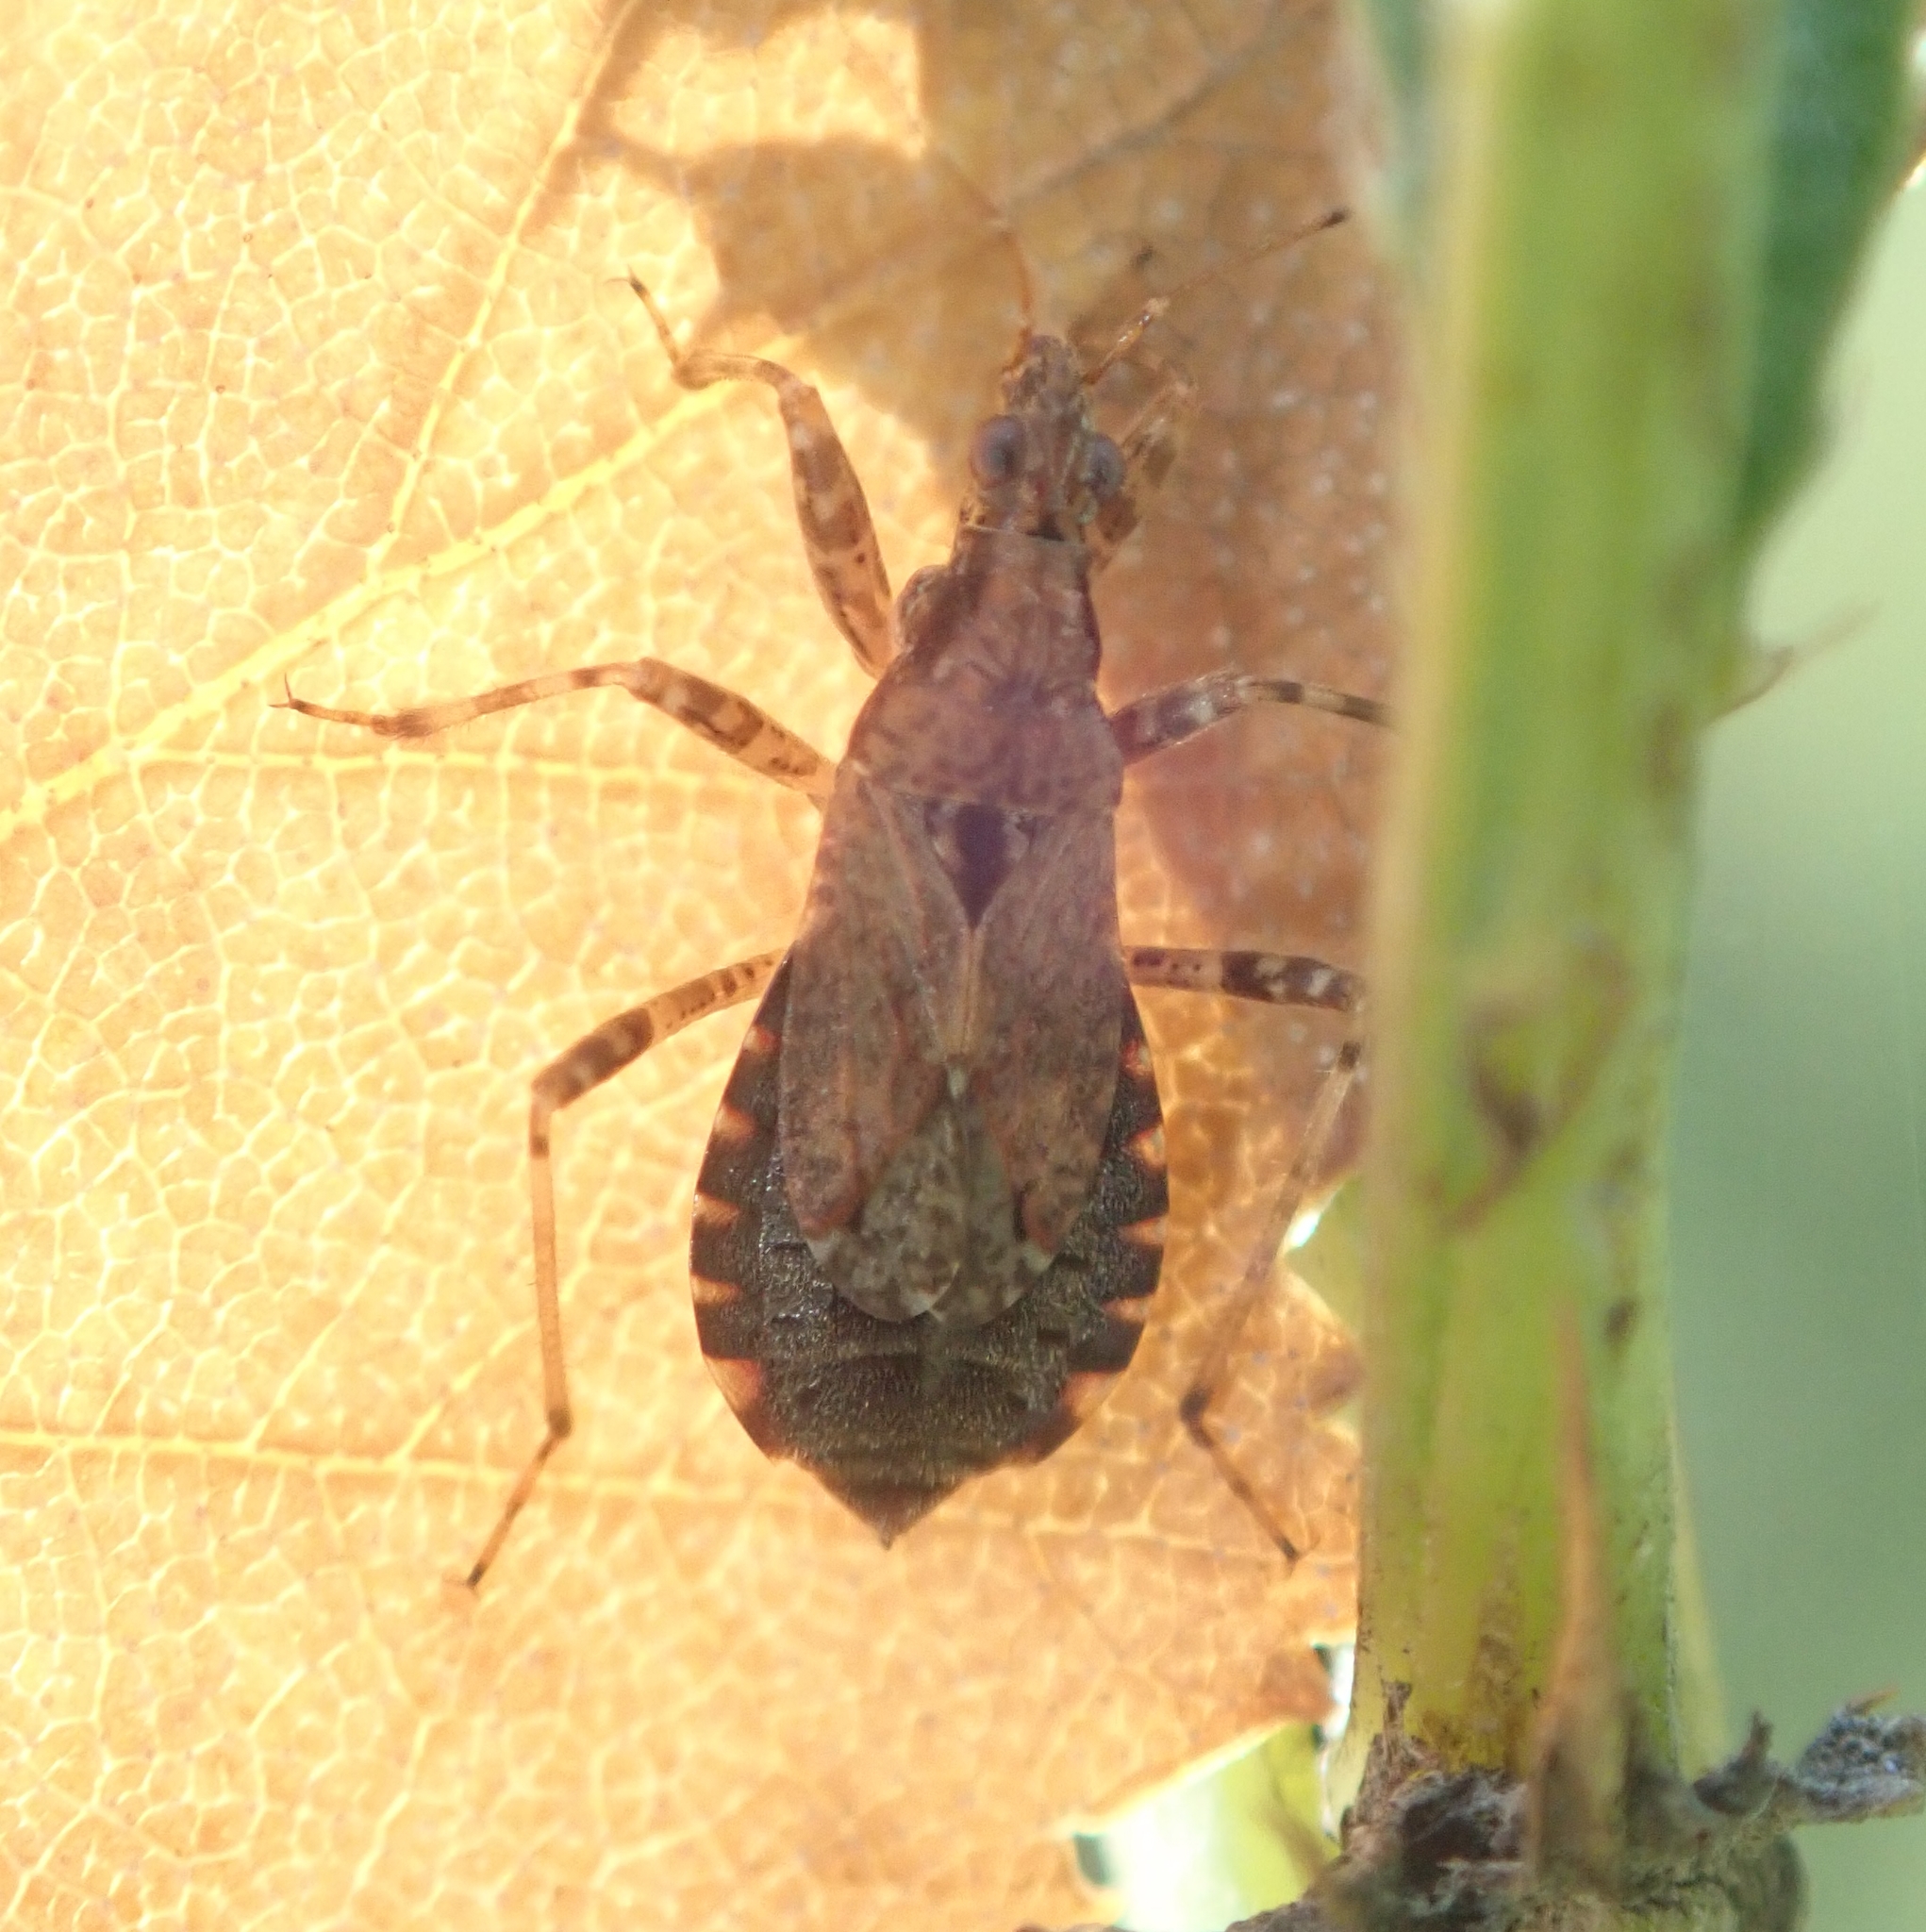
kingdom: Animalia
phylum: Arthropoda
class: Insecta
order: Hemiptera
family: Nabidae
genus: Himacerus
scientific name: Himacerus mirmicoides
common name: Ant damsel bug
